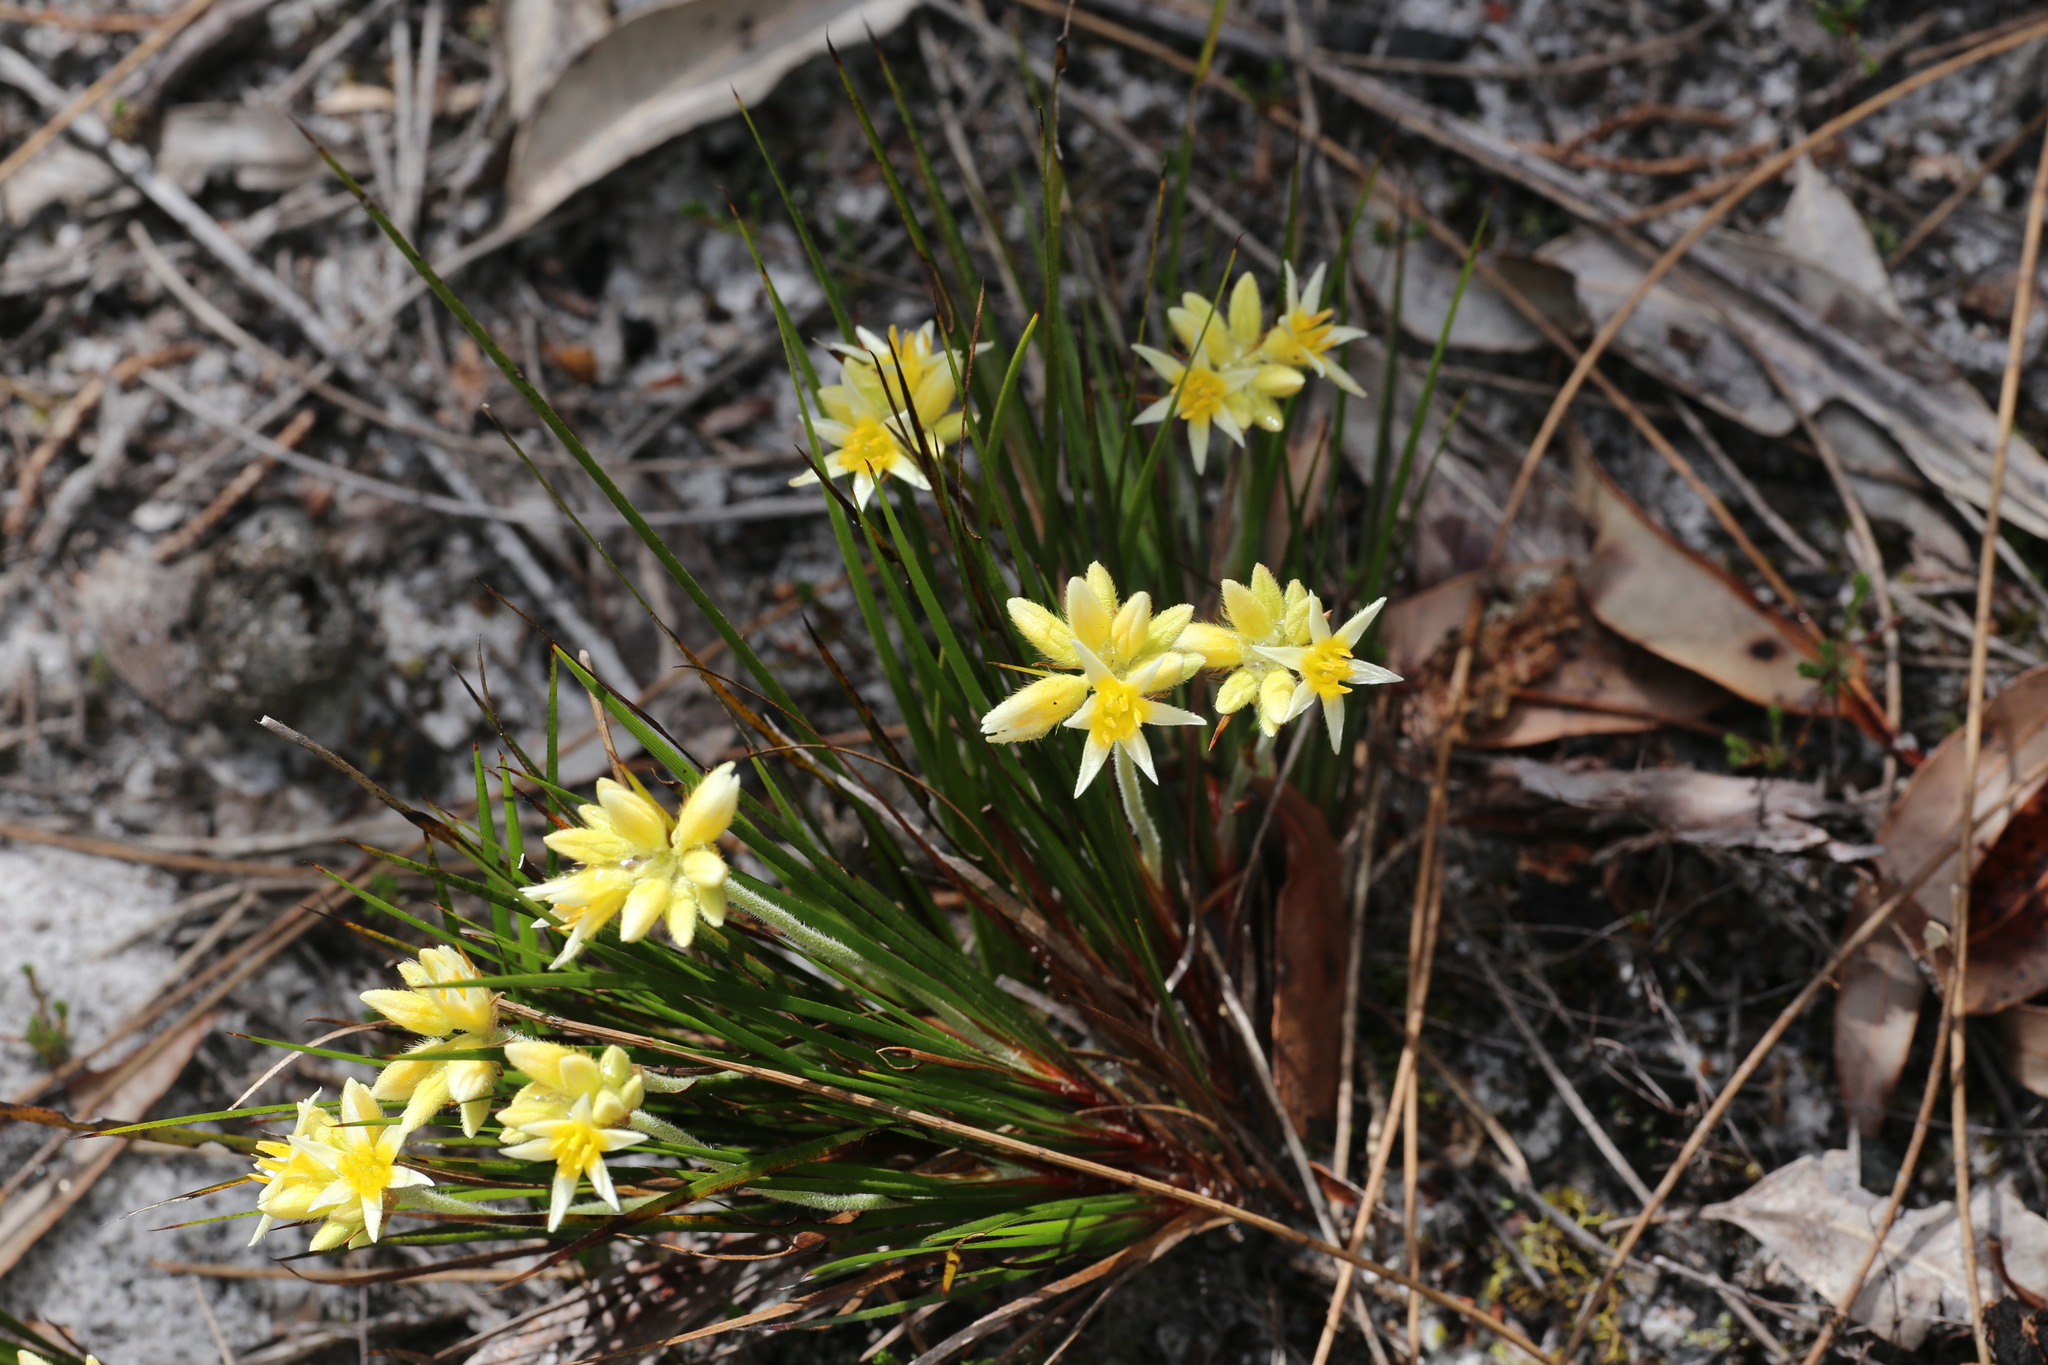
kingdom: Plantae
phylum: Tracheophyta
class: Liliopsida
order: Commelinales
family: Haemodoraceae
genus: Conostylis
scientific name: Conostylis laxiflora
